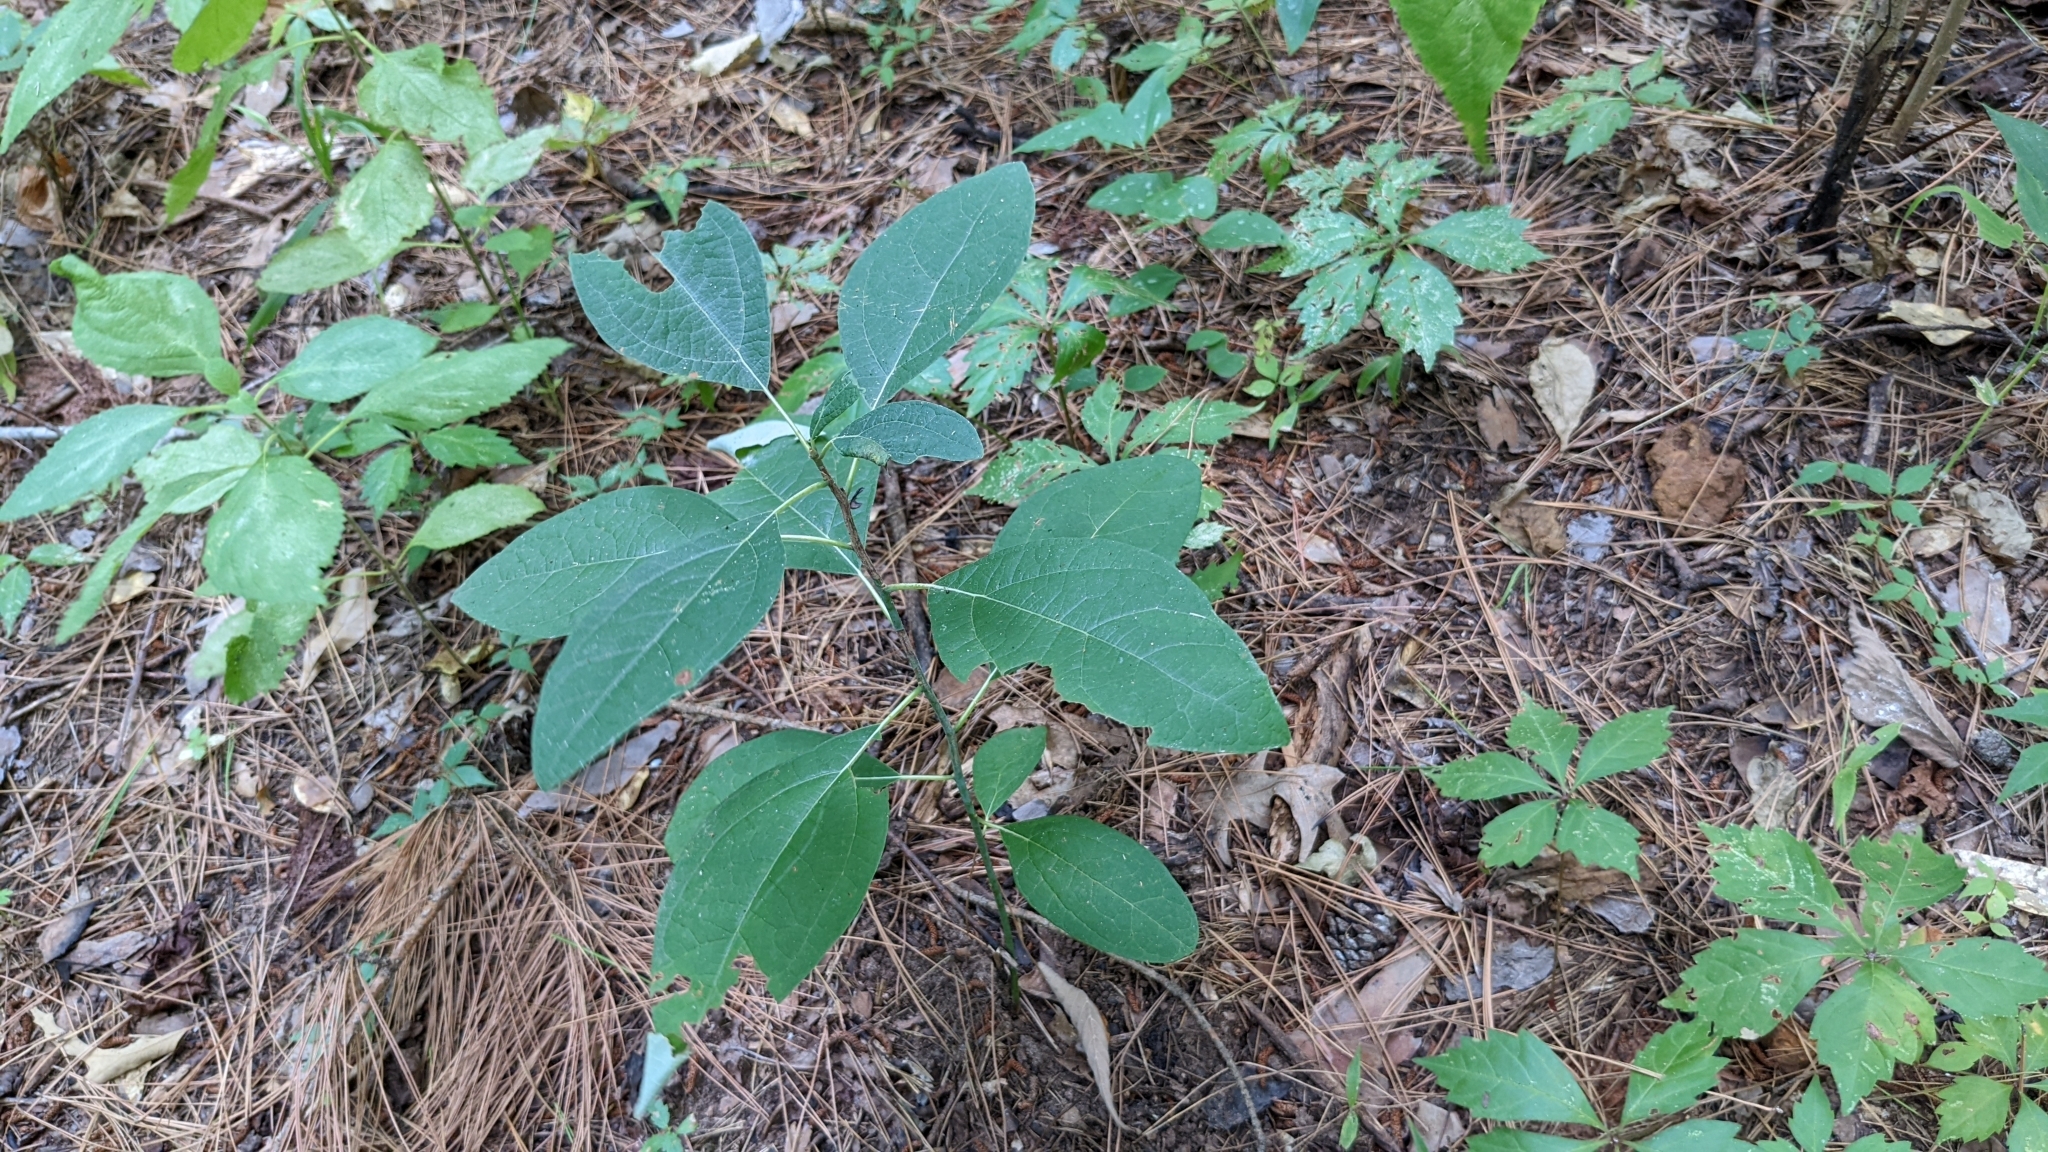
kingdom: Plantae
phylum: Tracheophyta
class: Magnoliopsida
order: Laurales
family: Lauraceae
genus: Sassafras
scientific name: Sassafras albidum
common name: Sassafras
